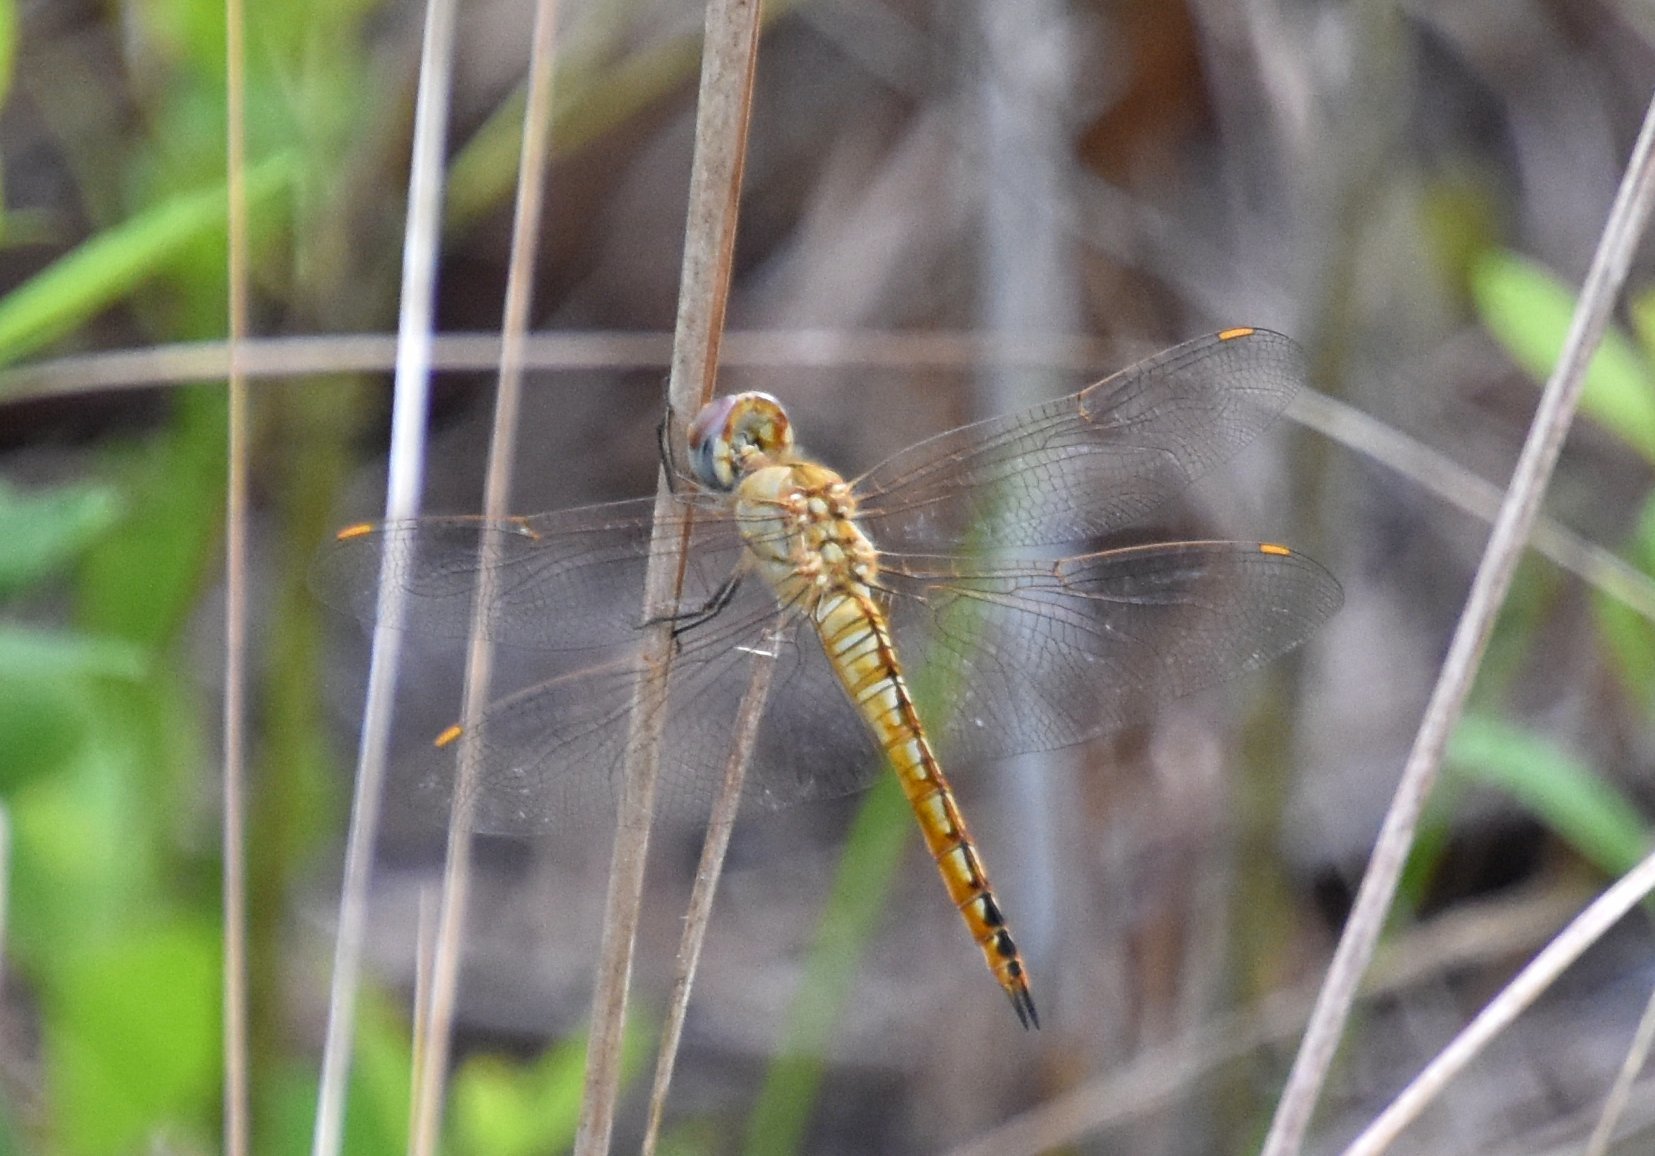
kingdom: Animalia
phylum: Arthropoda
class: Insecta
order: Odonata
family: Libellulidae
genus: Pantala
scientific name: Pantala flavescens
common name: Wandering glider
